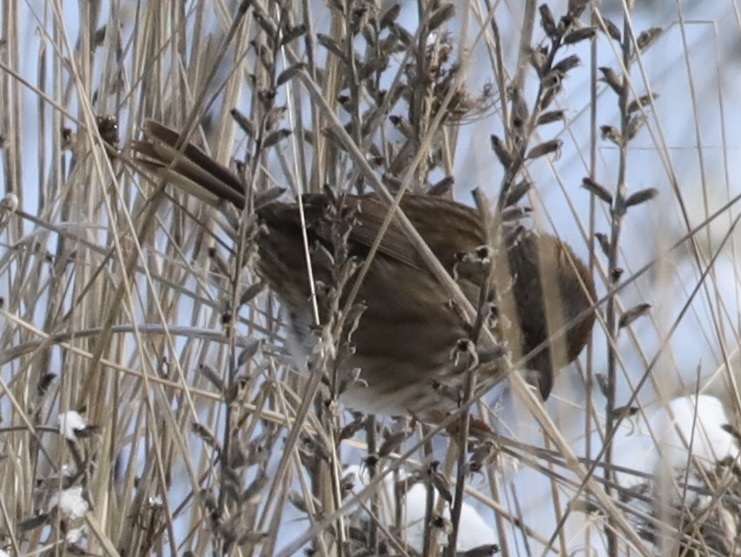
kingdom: Animalia
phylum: Chordata
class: Aves
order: Passeriformes
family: Passerellidae
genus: Melospiza
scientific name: Melospiza melodia
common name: Song sparrow
